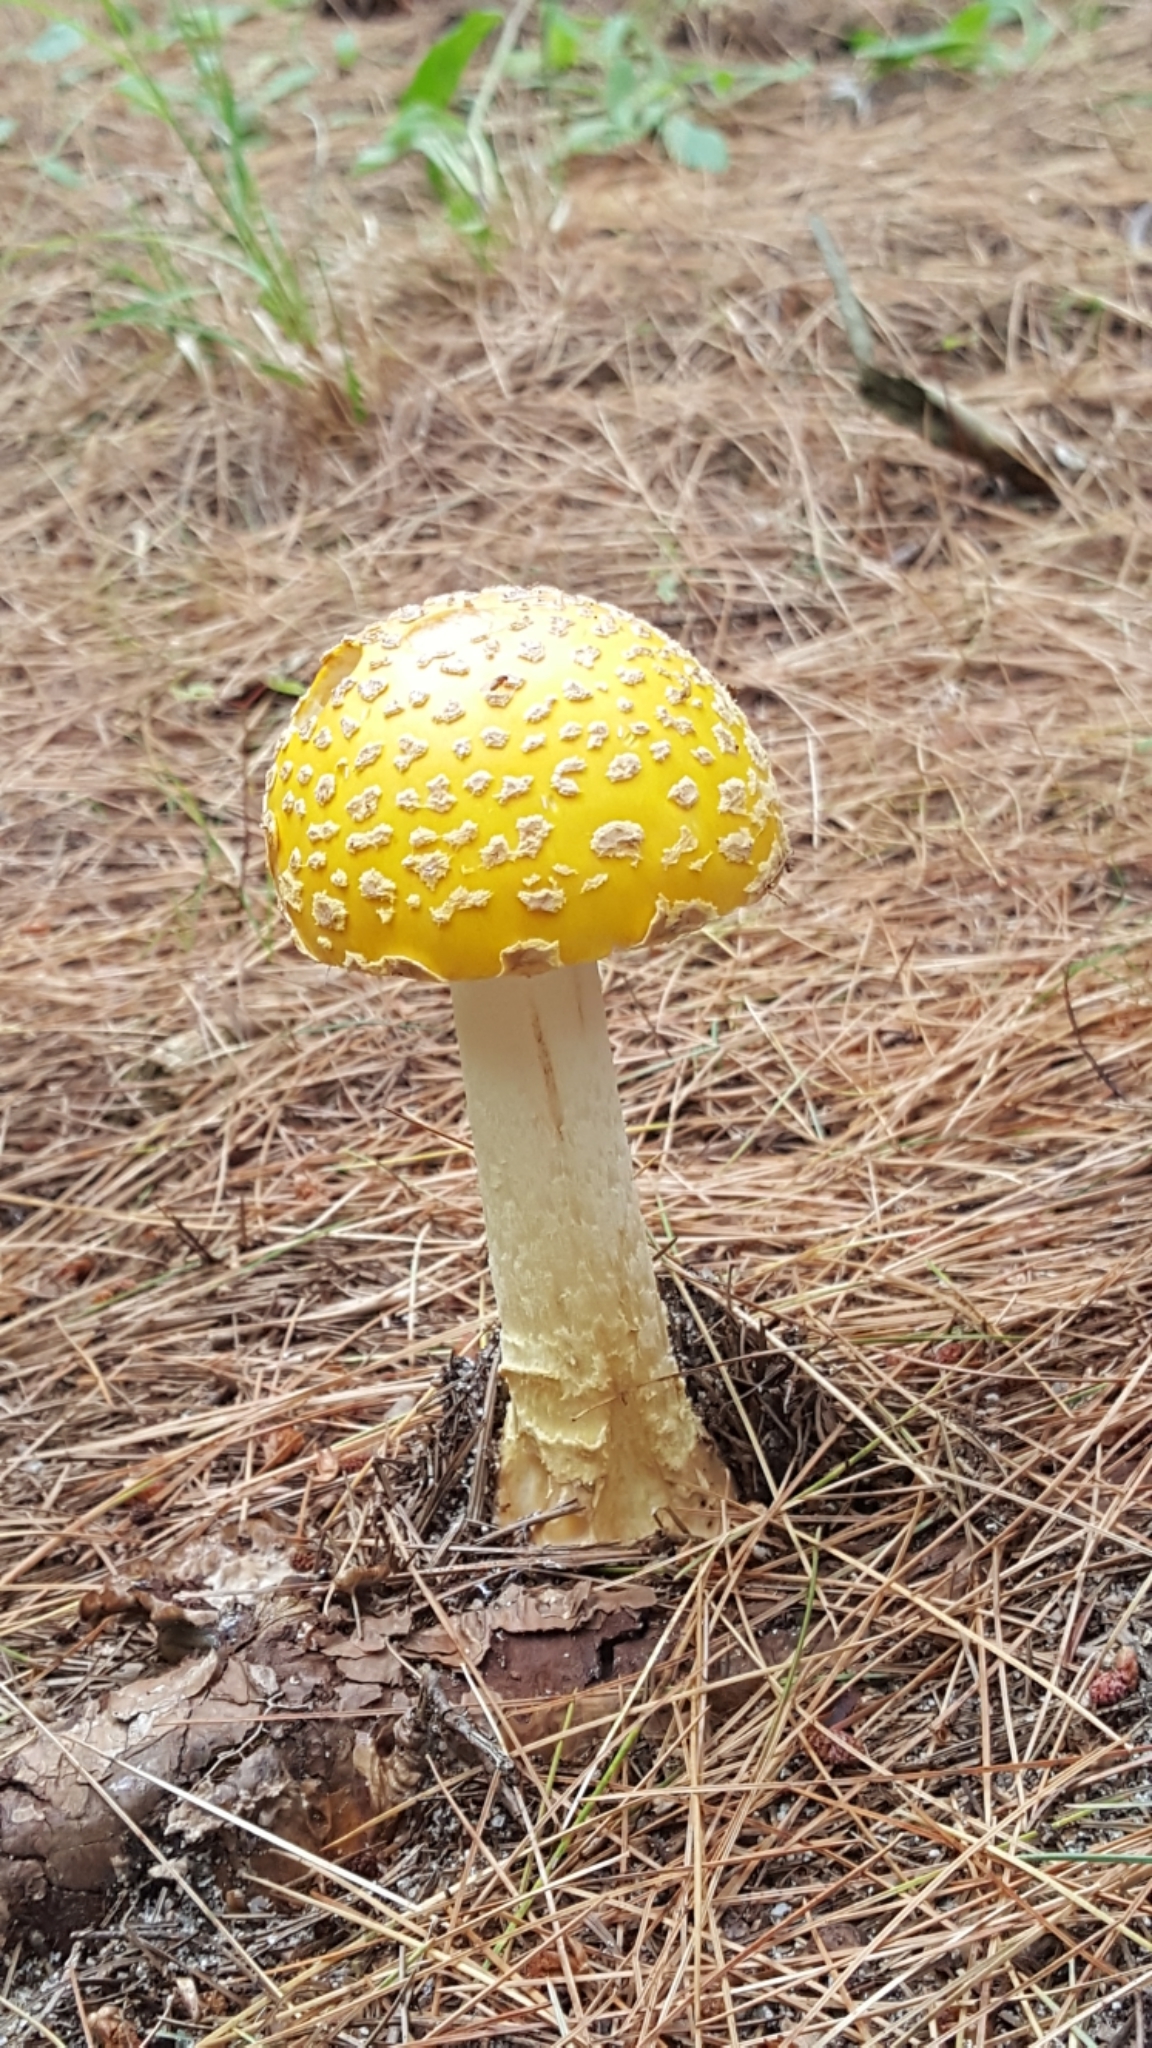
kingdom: Fungi
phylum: Basidiomycota
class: Agaricomycetes
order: Agaricales
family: Amanitaceae
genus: Amanita
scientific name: Amanita muscaria
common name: Fly agaric
